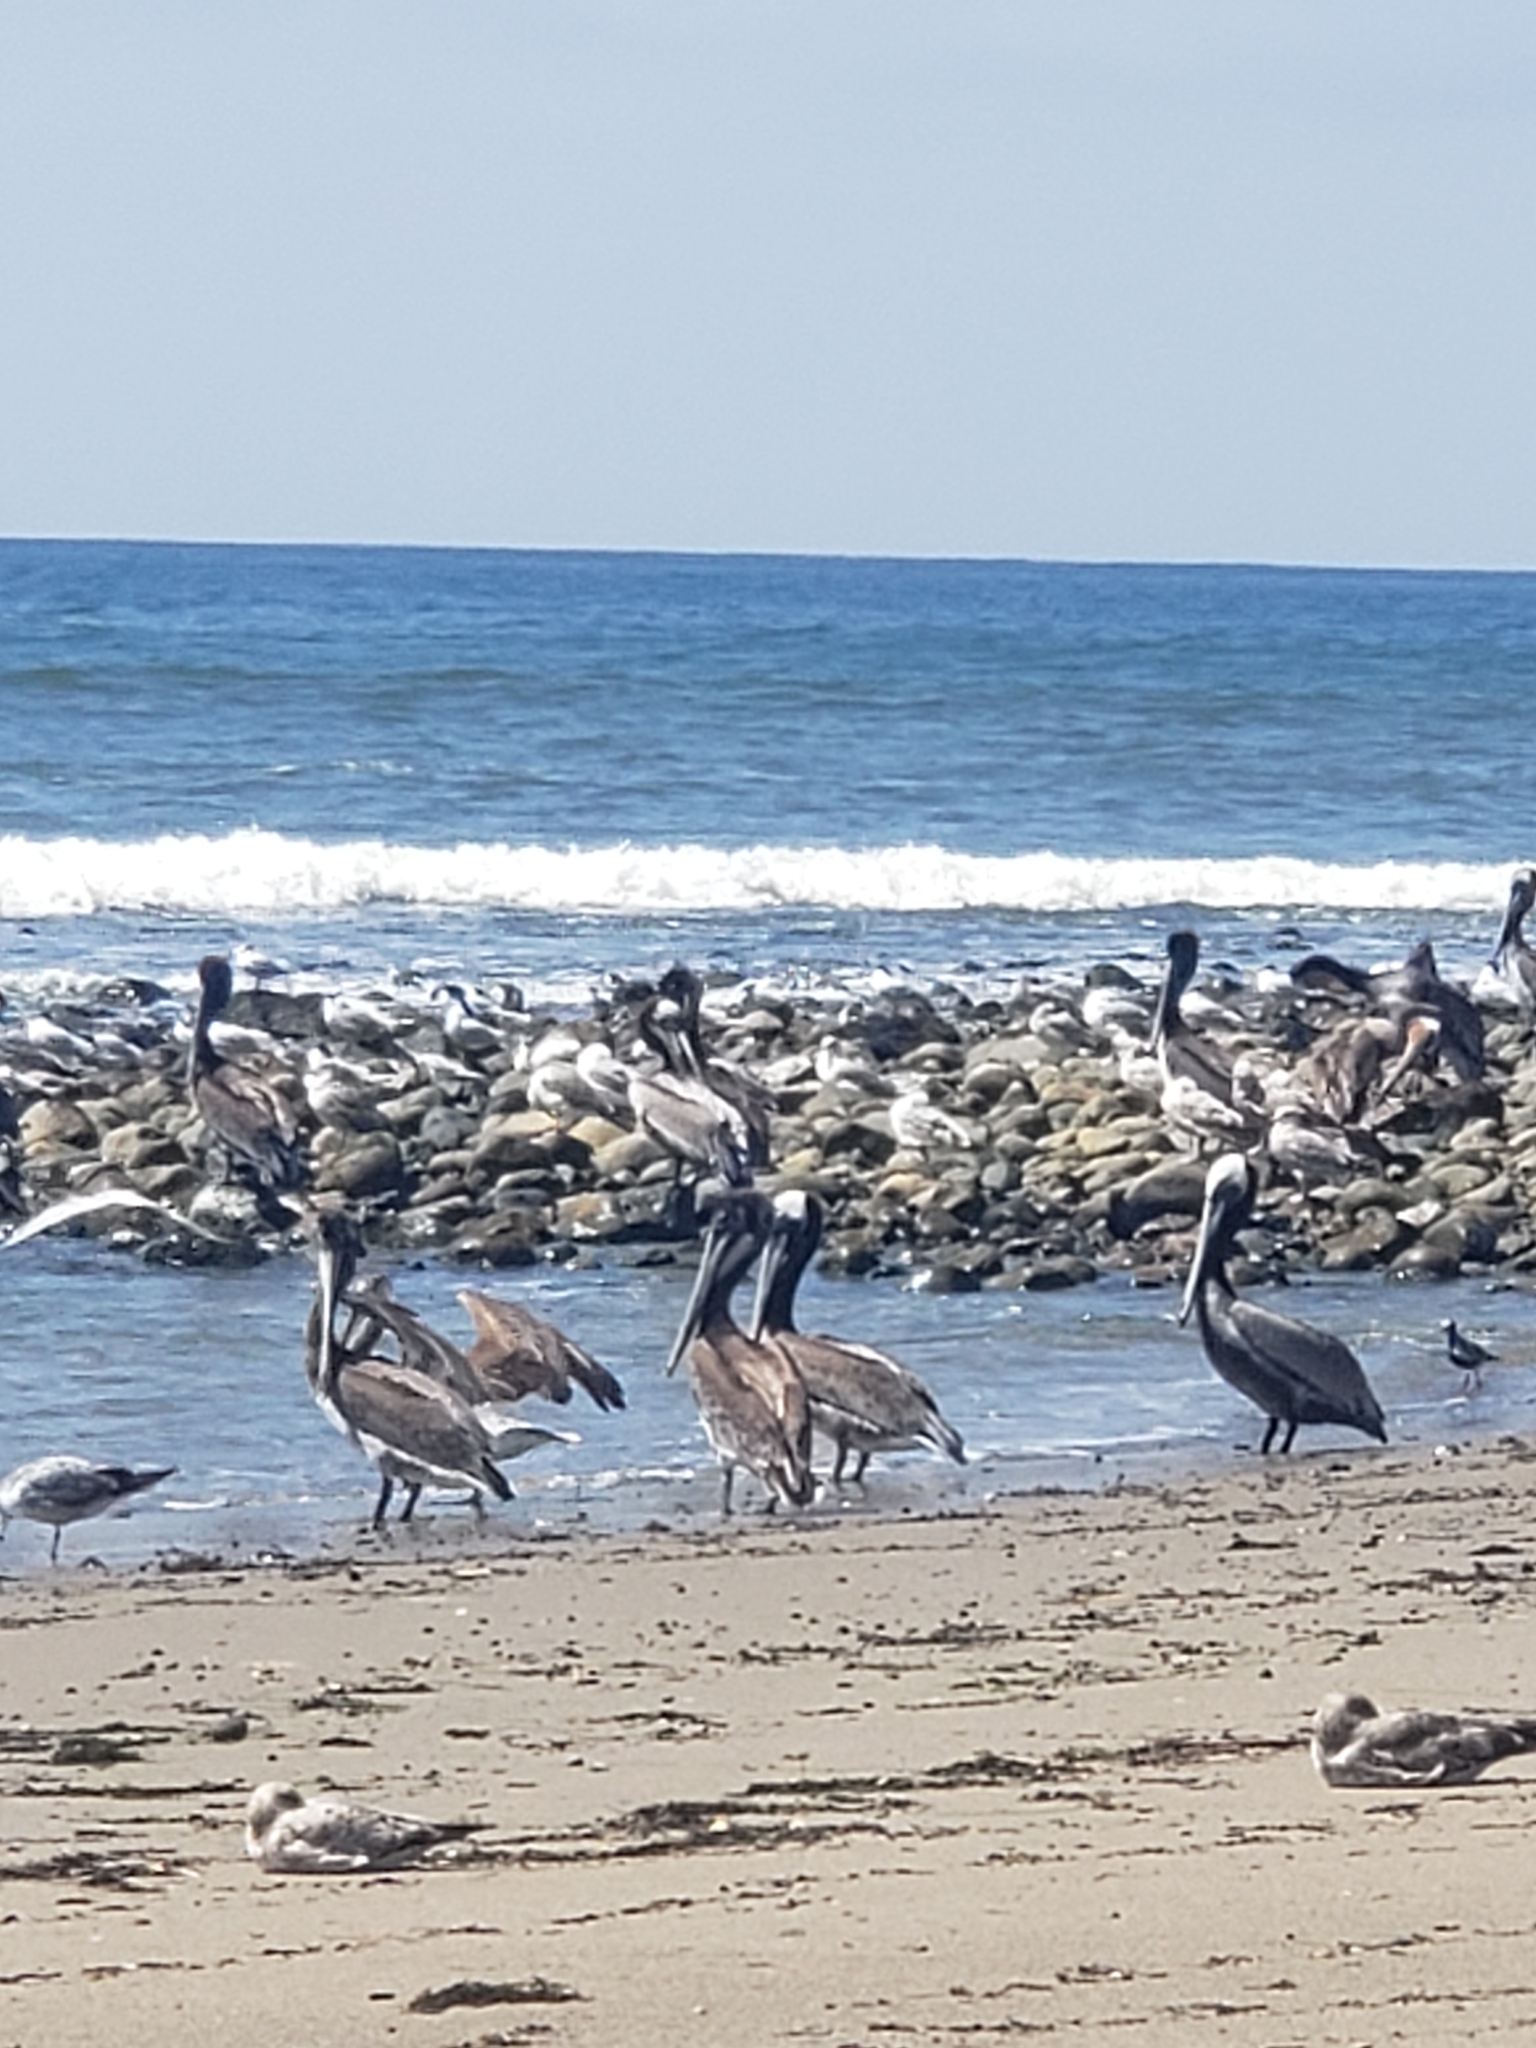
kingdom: Animalia
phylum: Chordata
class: Aves
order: Pelecaniformes
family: Pelecanidae
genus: Pelecanus
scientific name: Pelecanus occidentalis
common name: Brown pelican
